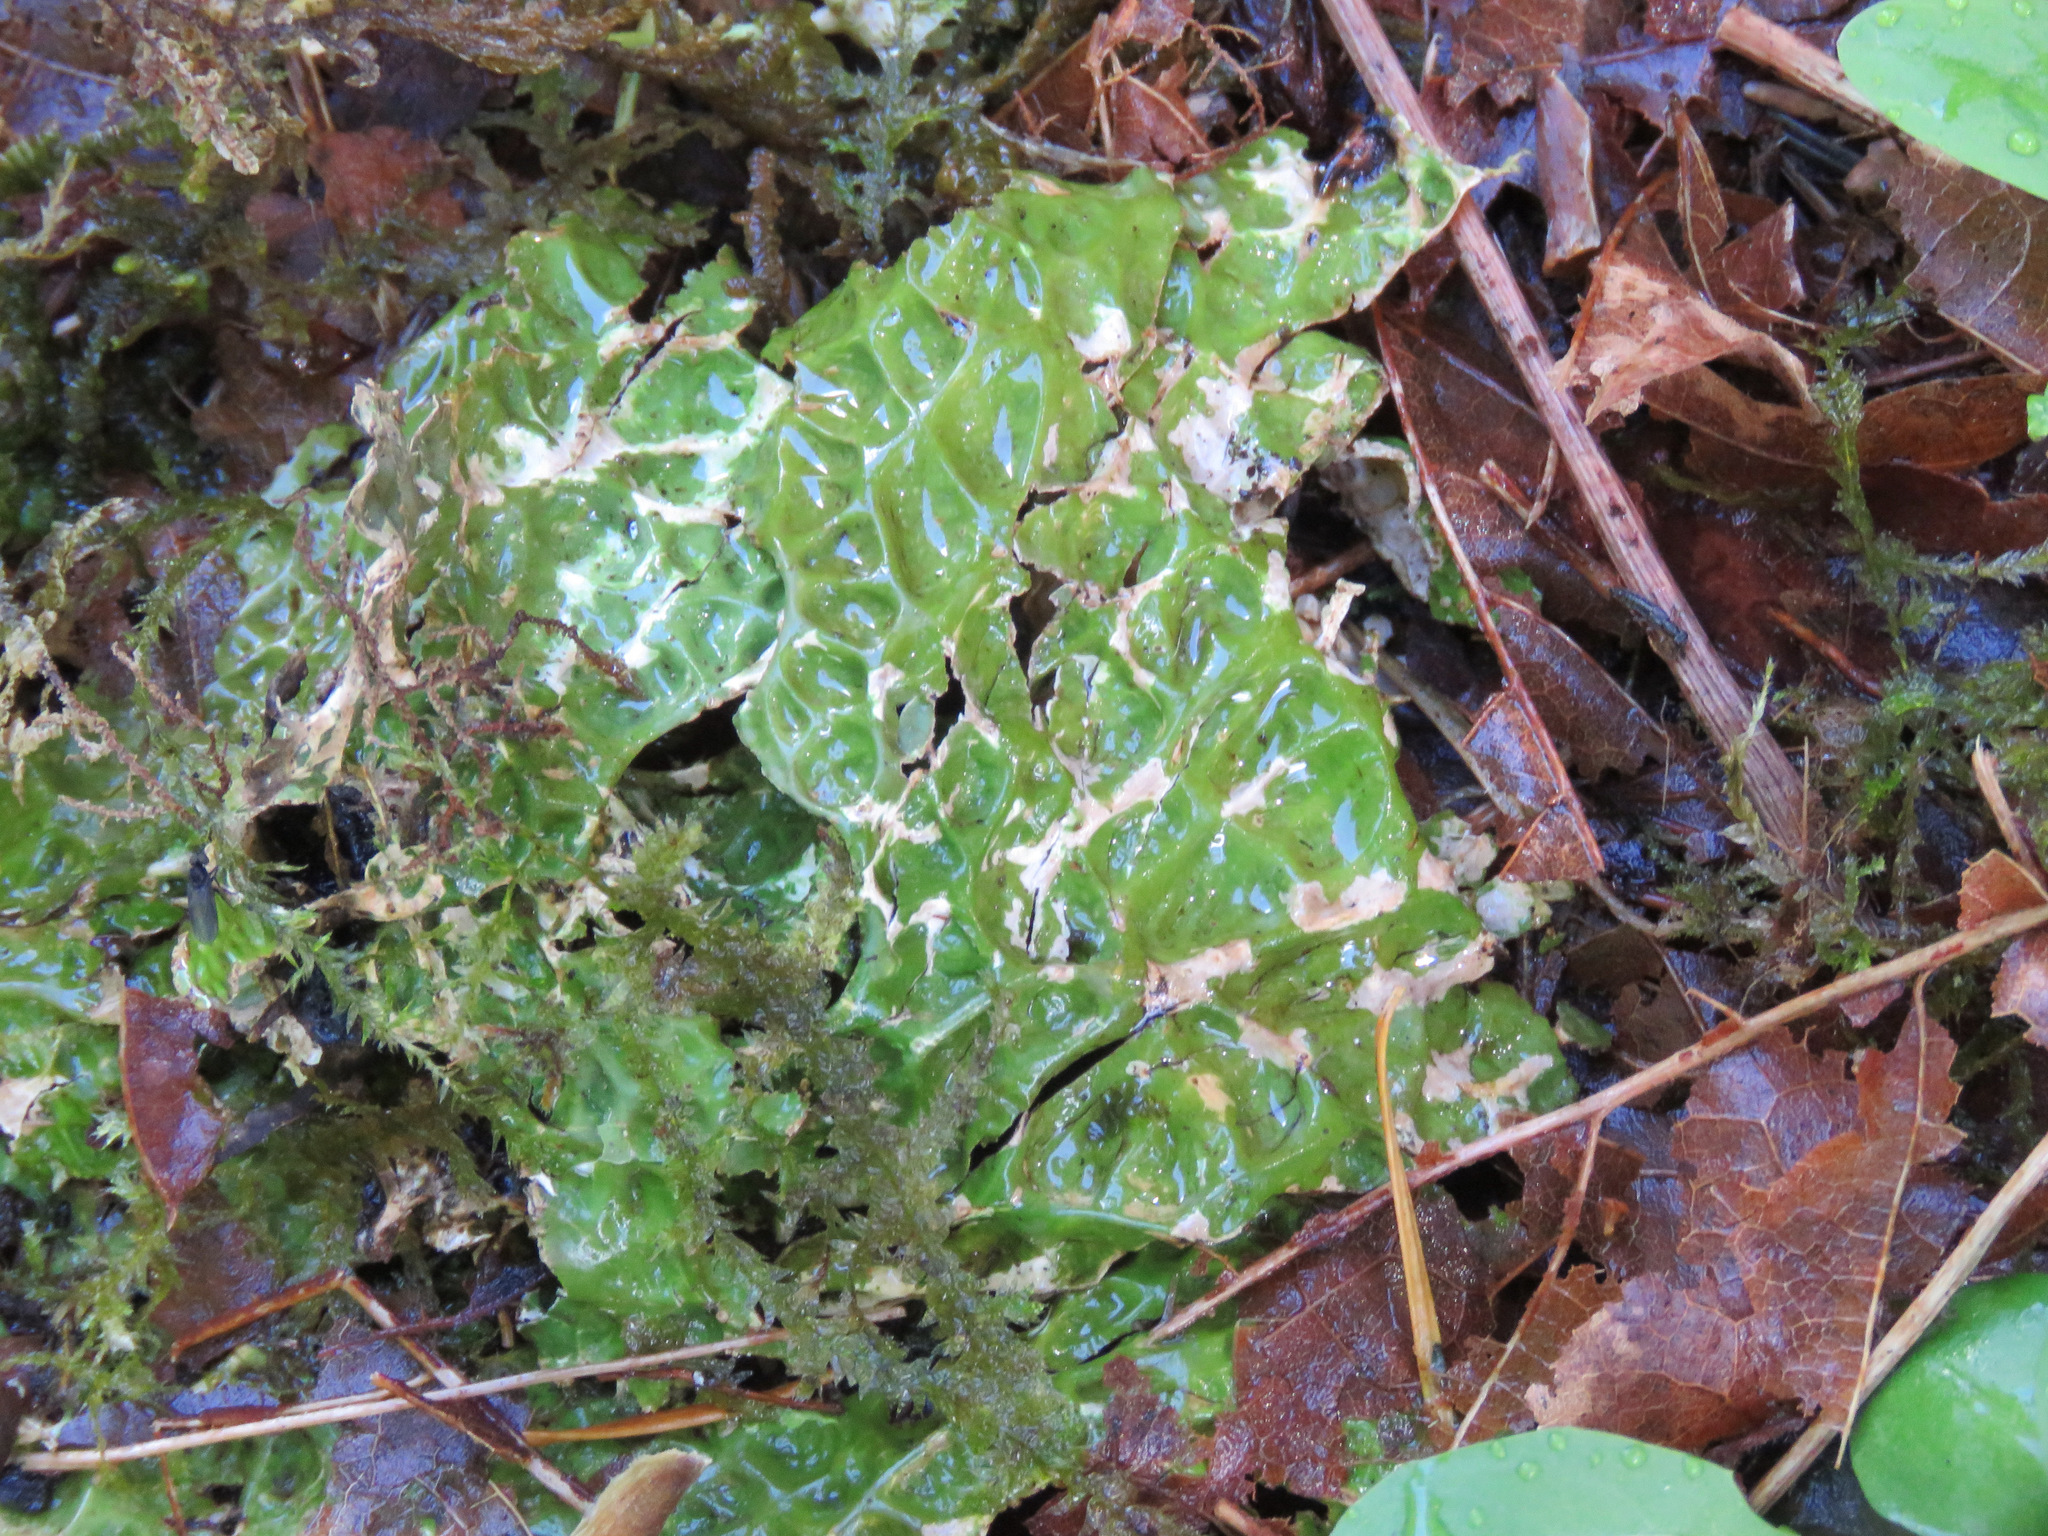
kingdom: Fungi
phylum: Ascomycota
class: Lecanoromycetes
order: Peltigerales
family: Lobariaceae
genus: Lobaria
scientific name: Lobaria pulmonaria
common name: Lungwort
